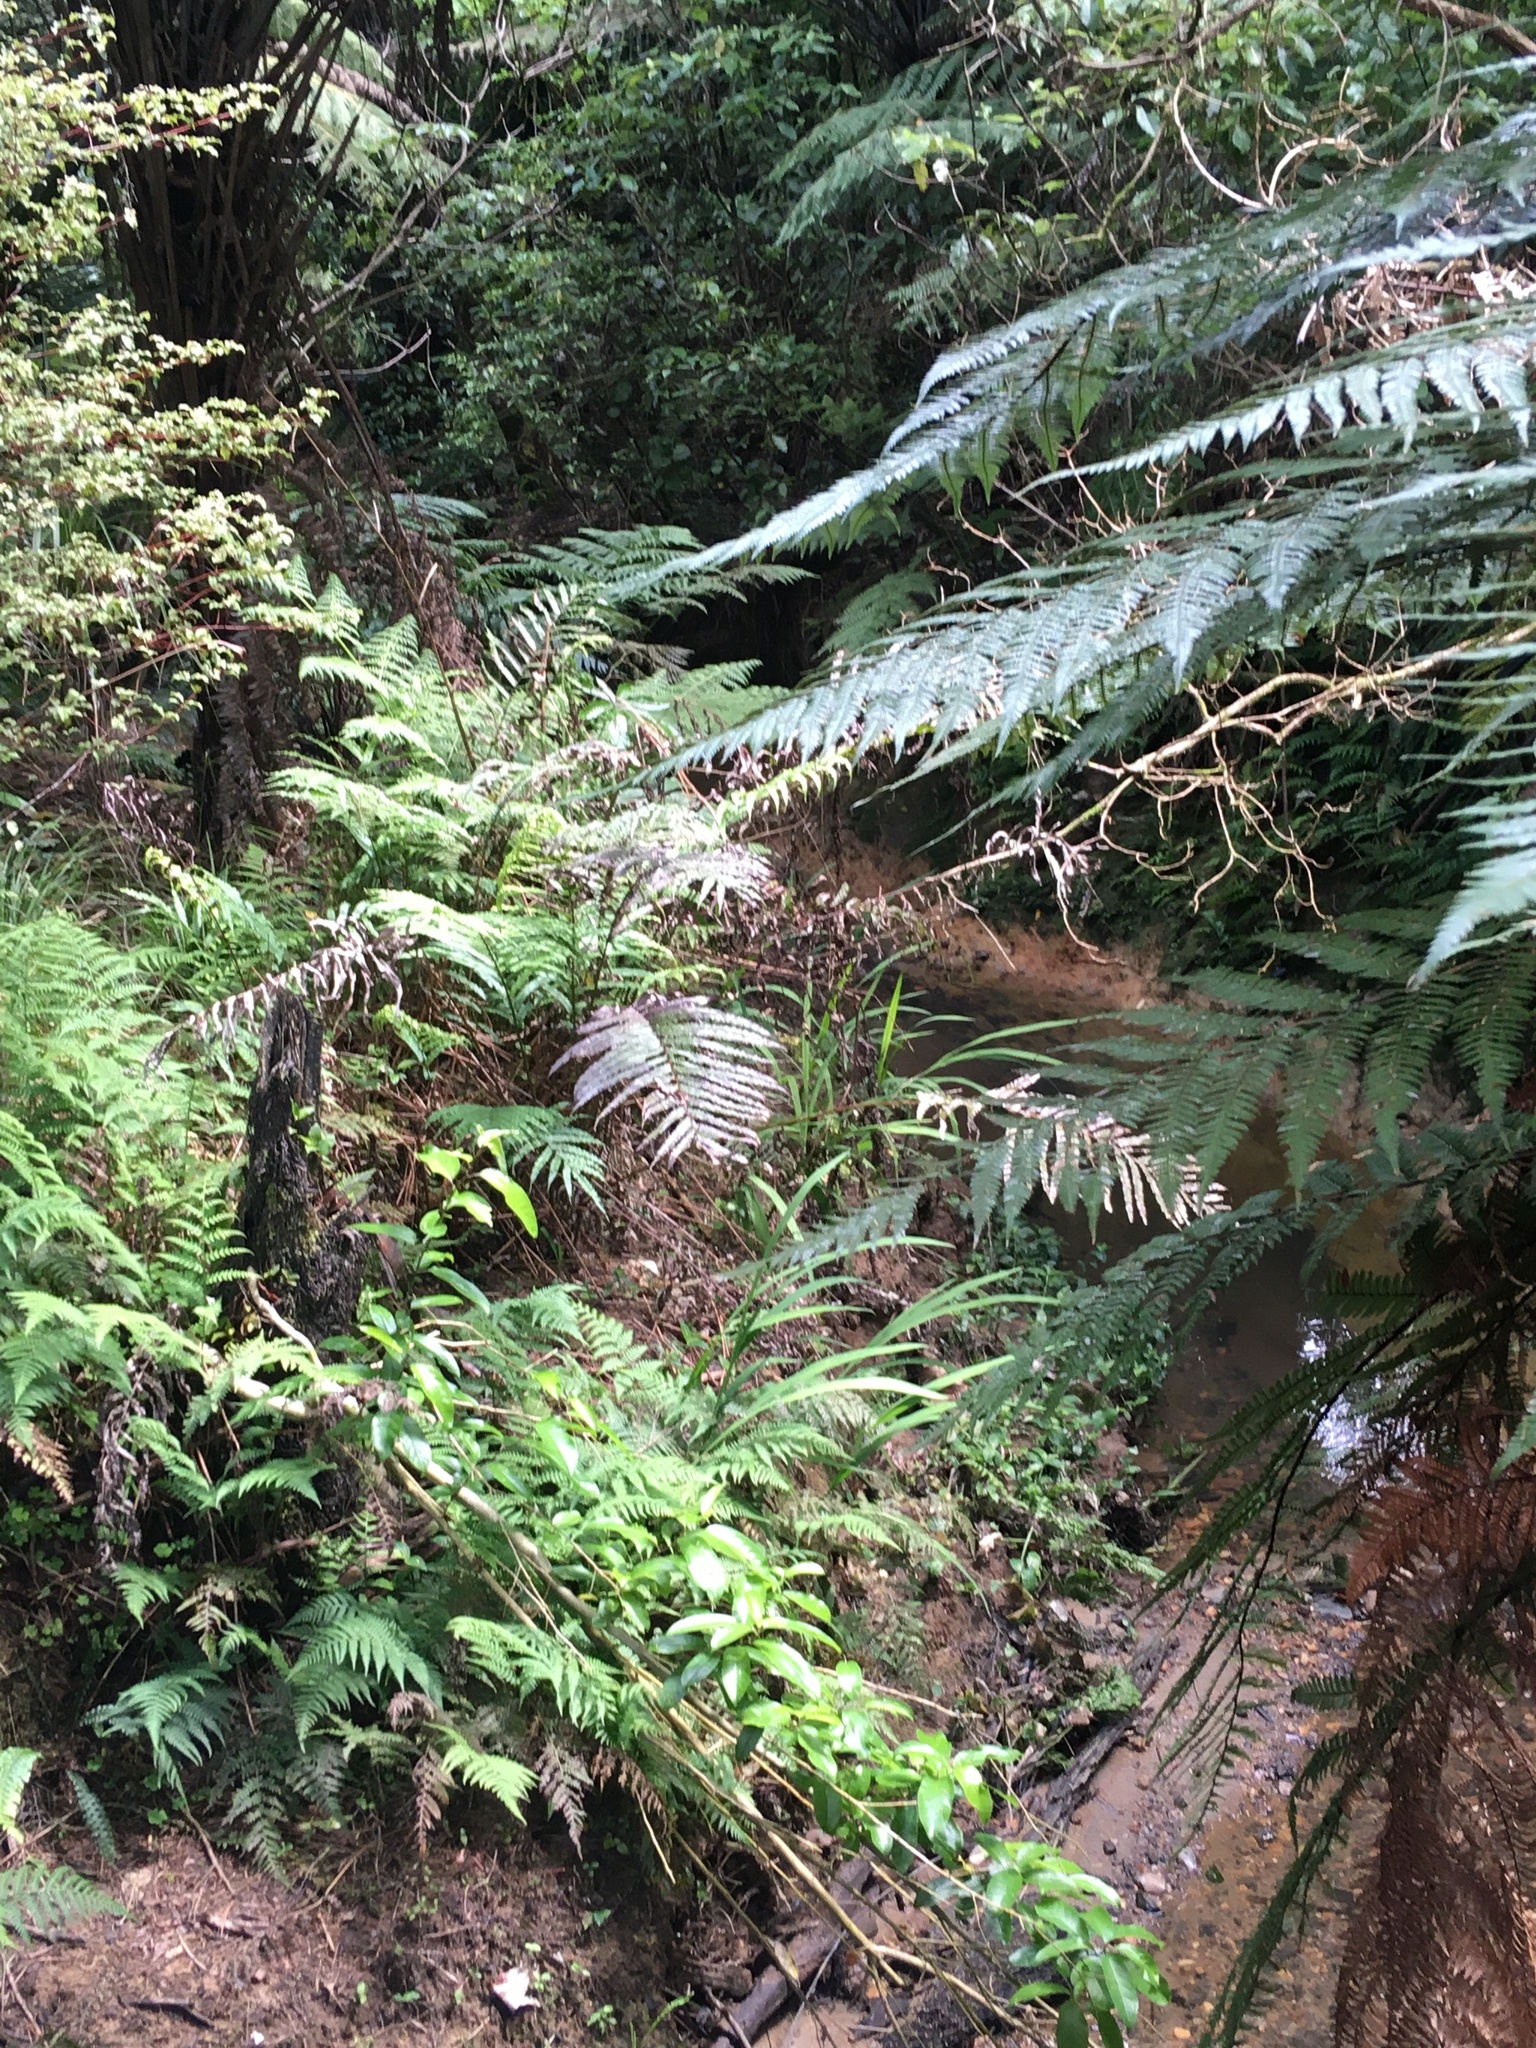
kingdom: Plantae
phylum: Tracheophyta
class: Magnoliopsida
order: Malpighiales
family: Violaceae
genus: Melicytus
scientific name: Melicytus ramiflorus
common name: Mahoe
